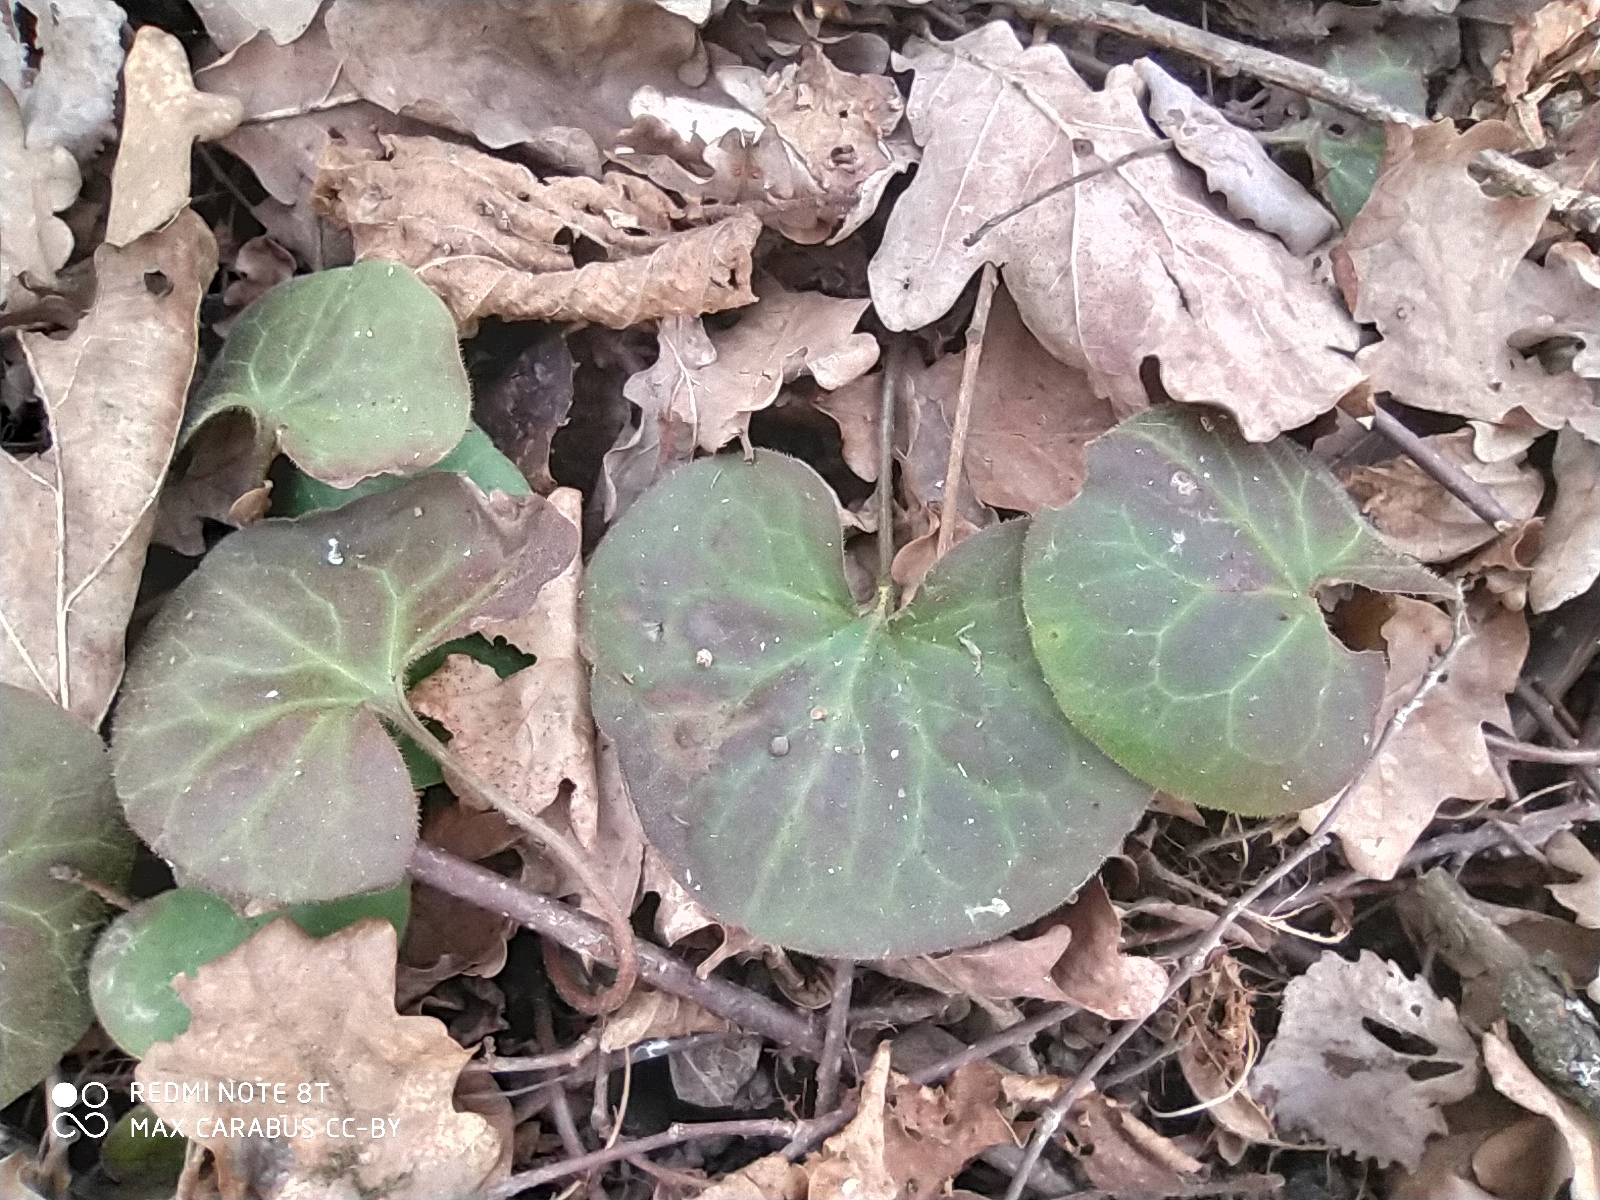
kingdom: Plantae
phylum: Tracheophyta
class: Magnoliopsida
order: Piperales
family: Aristolochiaceae
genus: Asarum
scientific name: Asarum europaeum
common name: Asarabacca
